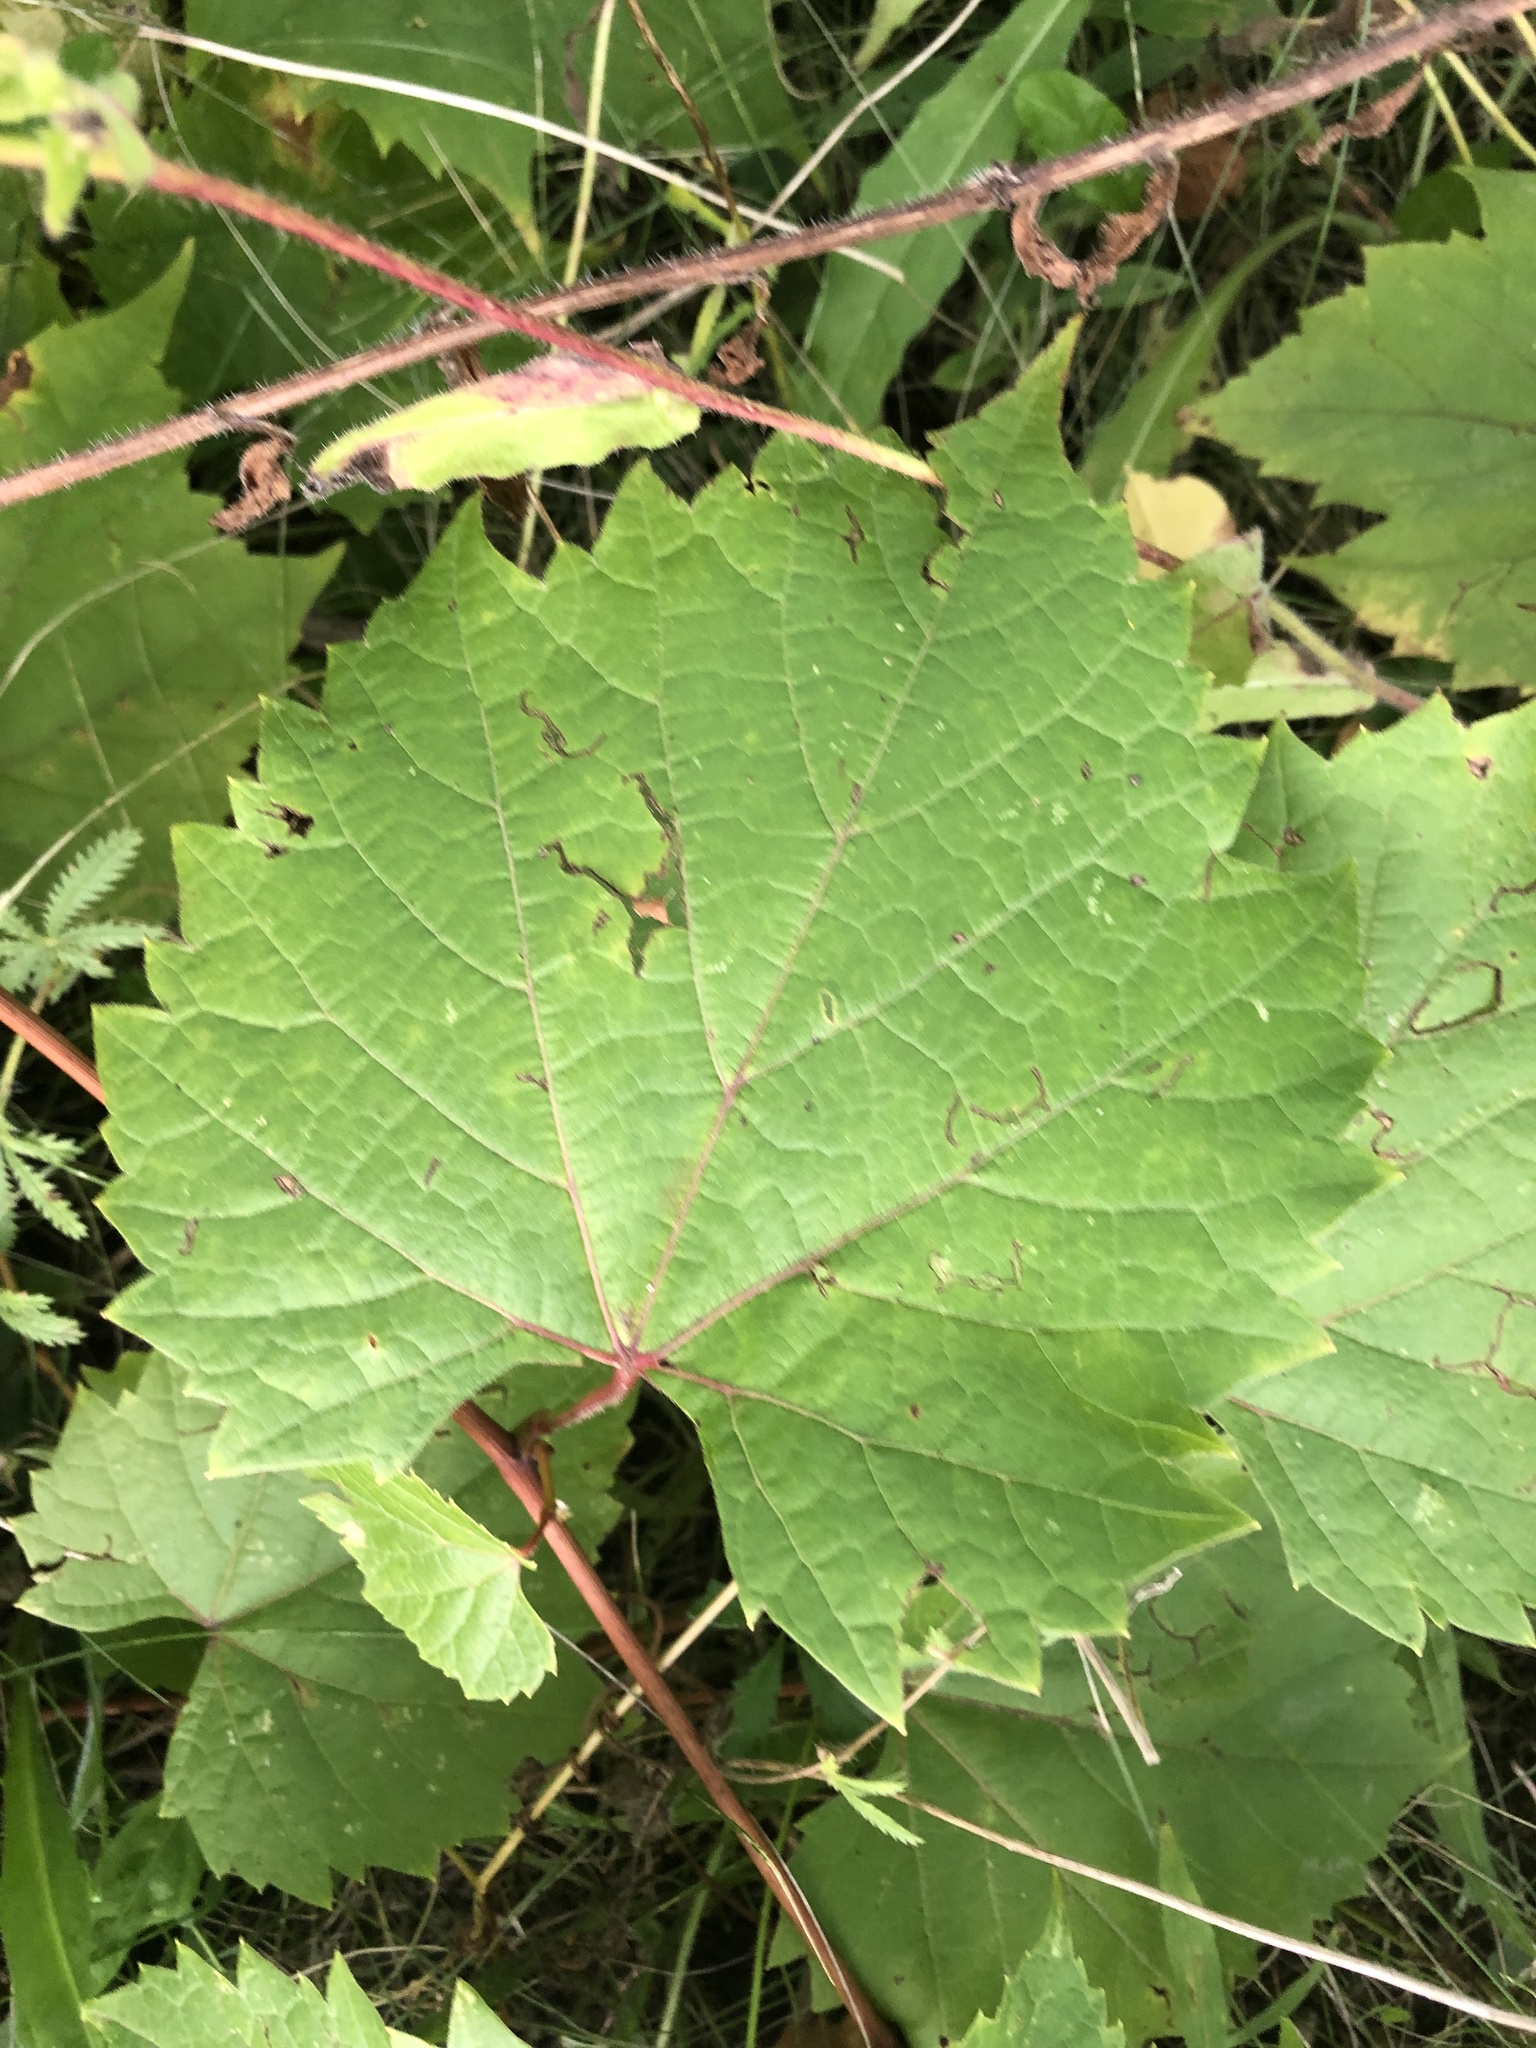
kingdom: Plantae
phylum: Tracheophyta
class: Magnoliopsida
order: Vitales
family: Vitaceae
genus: Vitis
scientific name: Vitis riparia
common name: Frost grape
